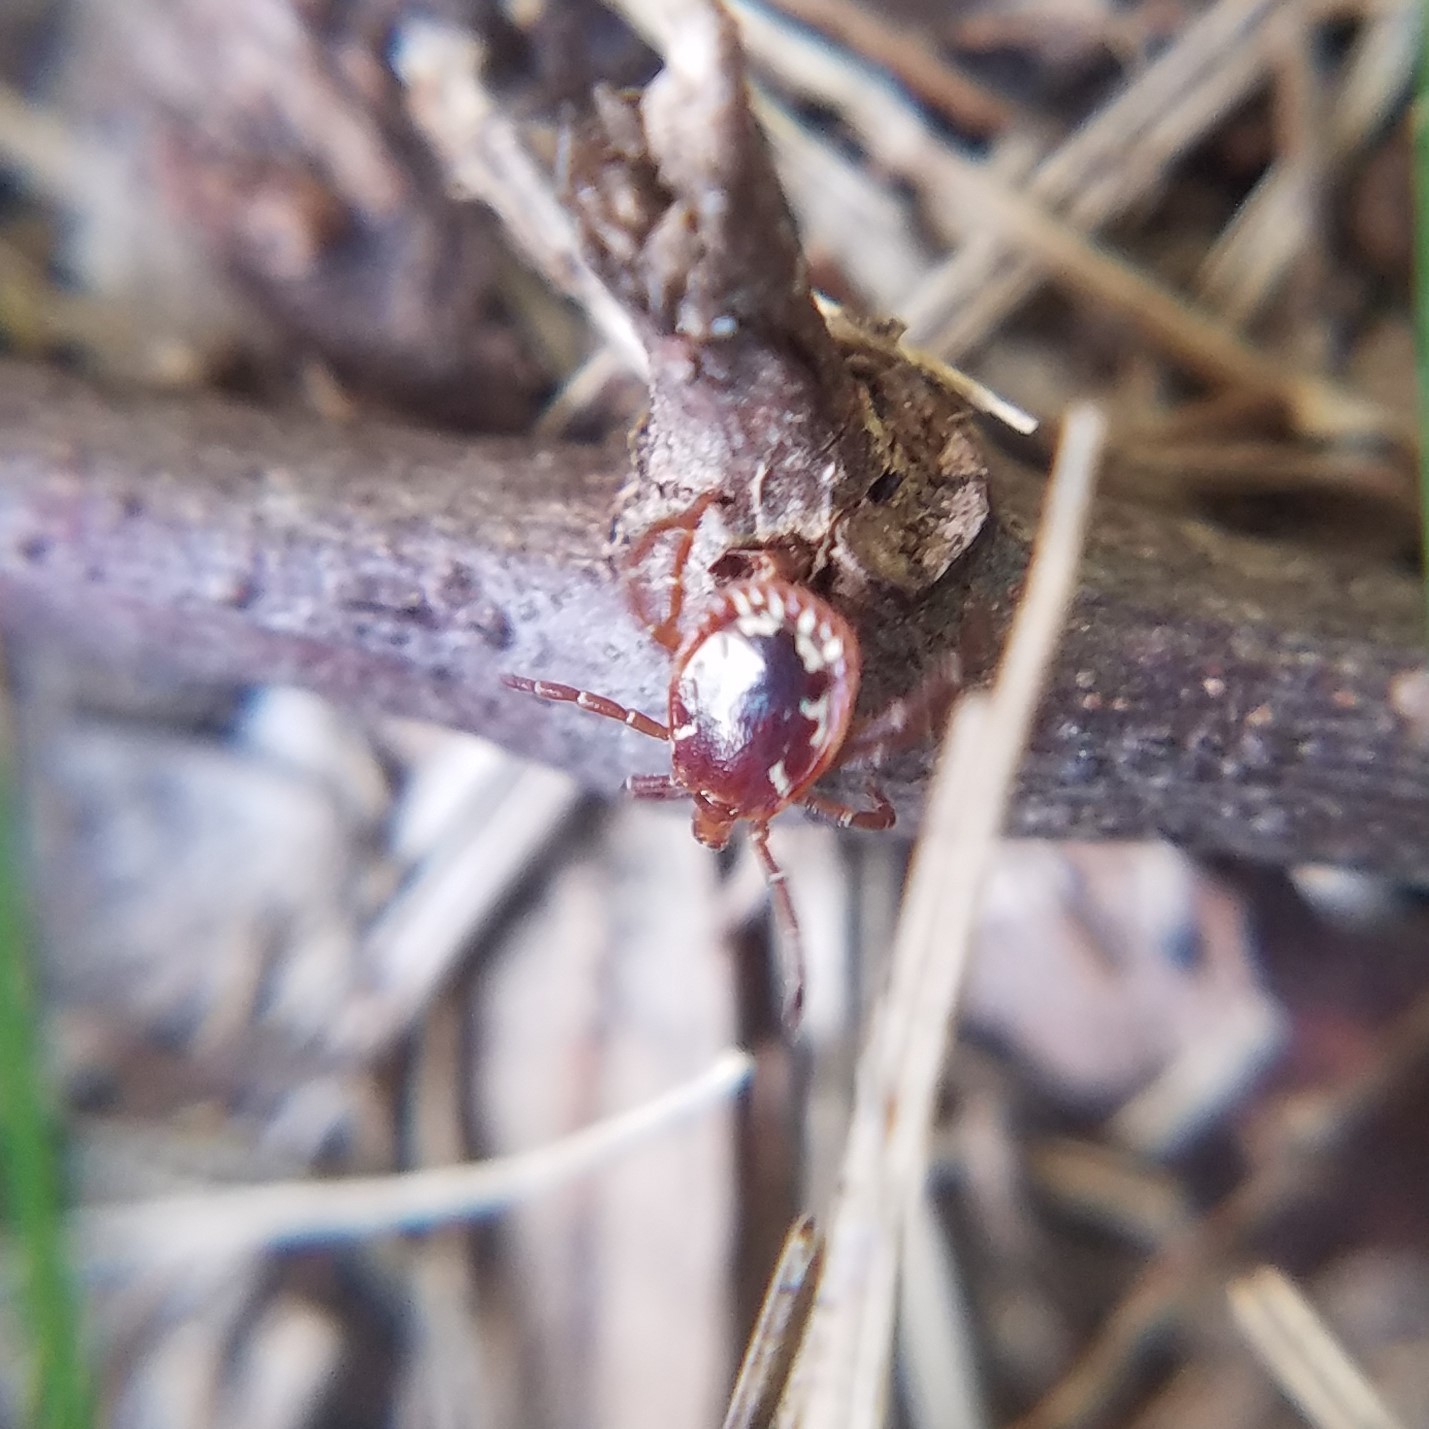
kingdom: Animalia
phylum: Arthropoda
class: Arachnida
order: Ixodida
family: Ixodidae
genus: Amblyomma
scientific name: Amblyomma americanum
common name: Lone star tick
